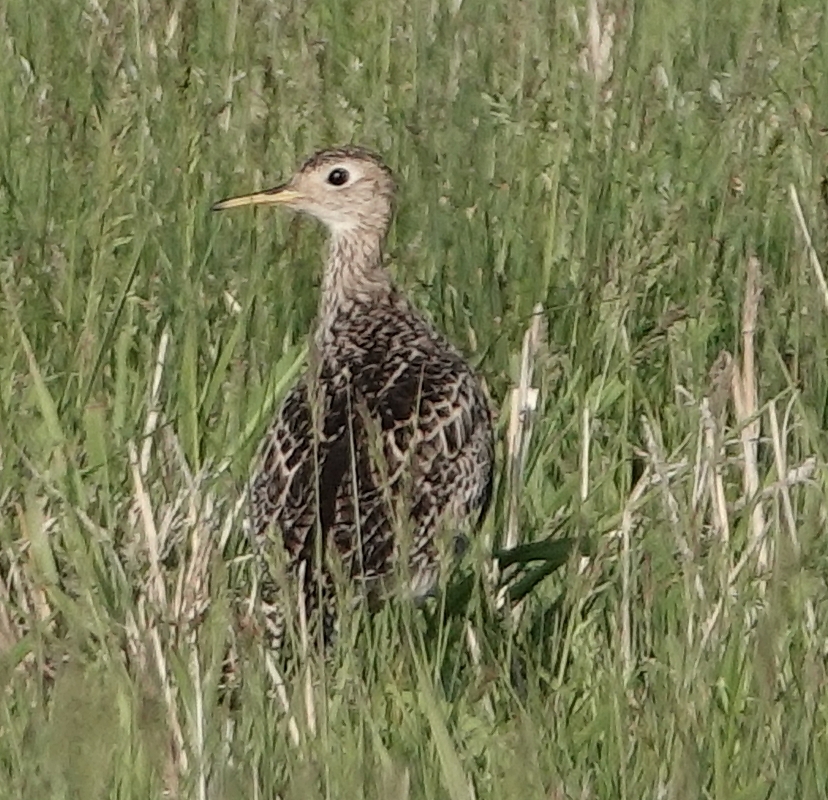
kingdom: Animalia
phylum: Chordata
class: Aves
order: Charadriiformes
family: Scolopacidae
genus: Bartramia
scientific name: Bartramia longicauda
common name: Upland sandpiper
